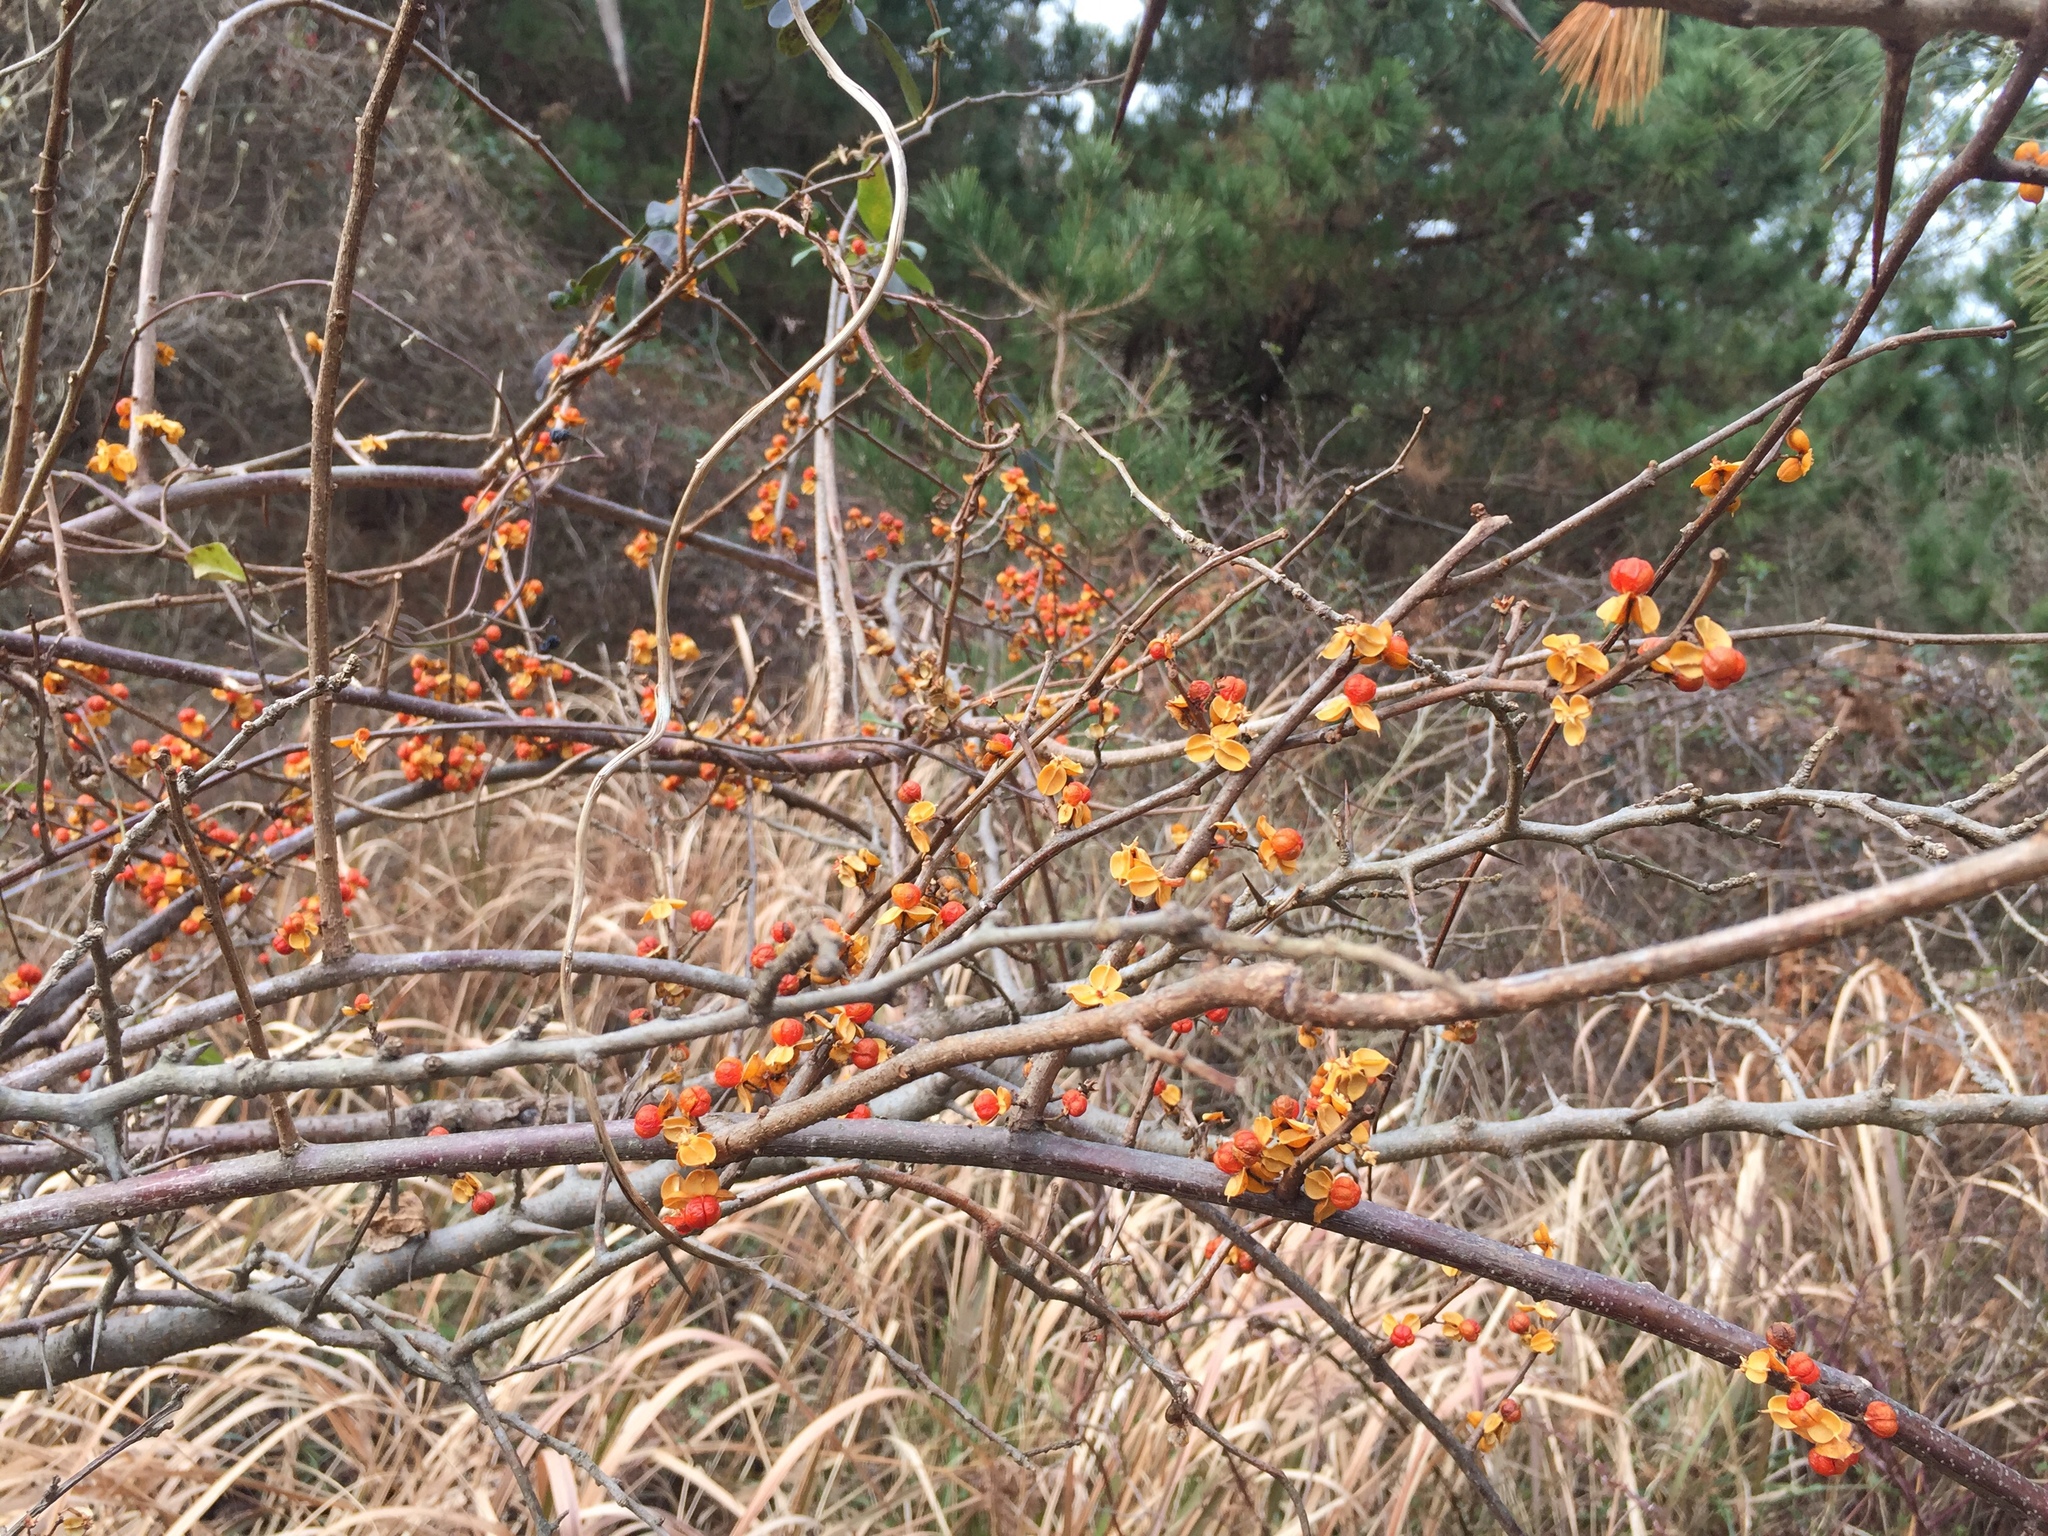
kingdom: Plantae
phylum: Tracheophyta
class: Magnoliopsida
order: Celastrales
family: Celastraceae
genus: Celastrus
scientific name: Celastrus orbiculatus
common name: Oriental bittersweet
